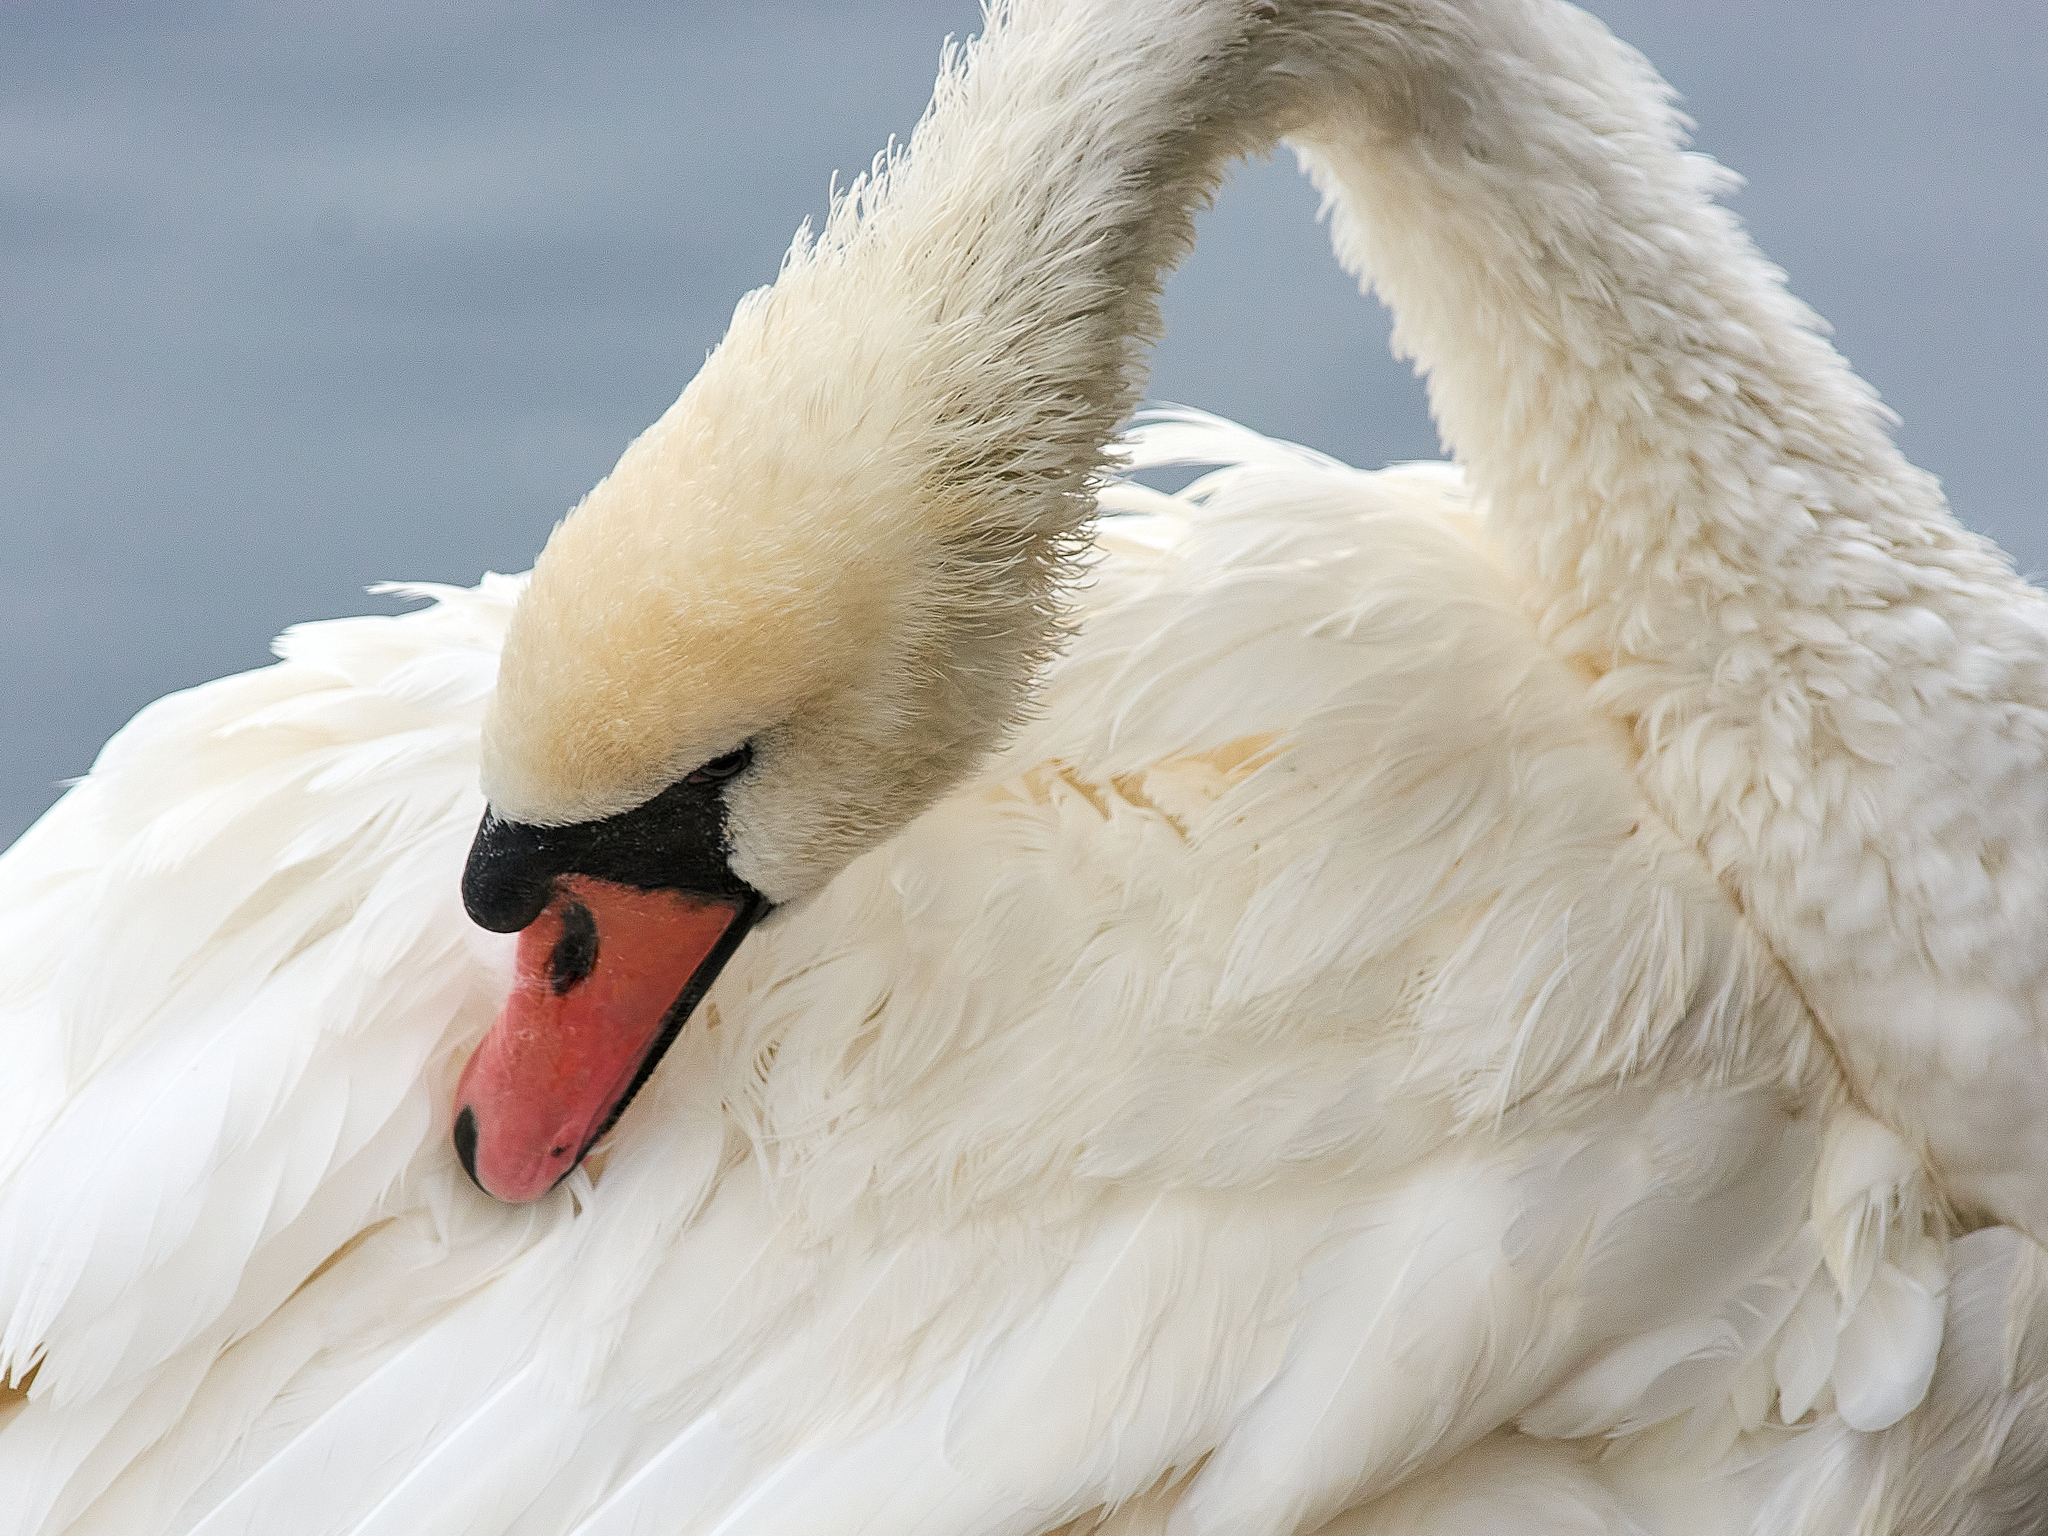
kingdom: Animalia
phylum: Chordata
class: Aves
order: Anseriformes
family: Anatidae
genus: Cygnus
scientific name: Cygnus olor
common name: Mute swan
